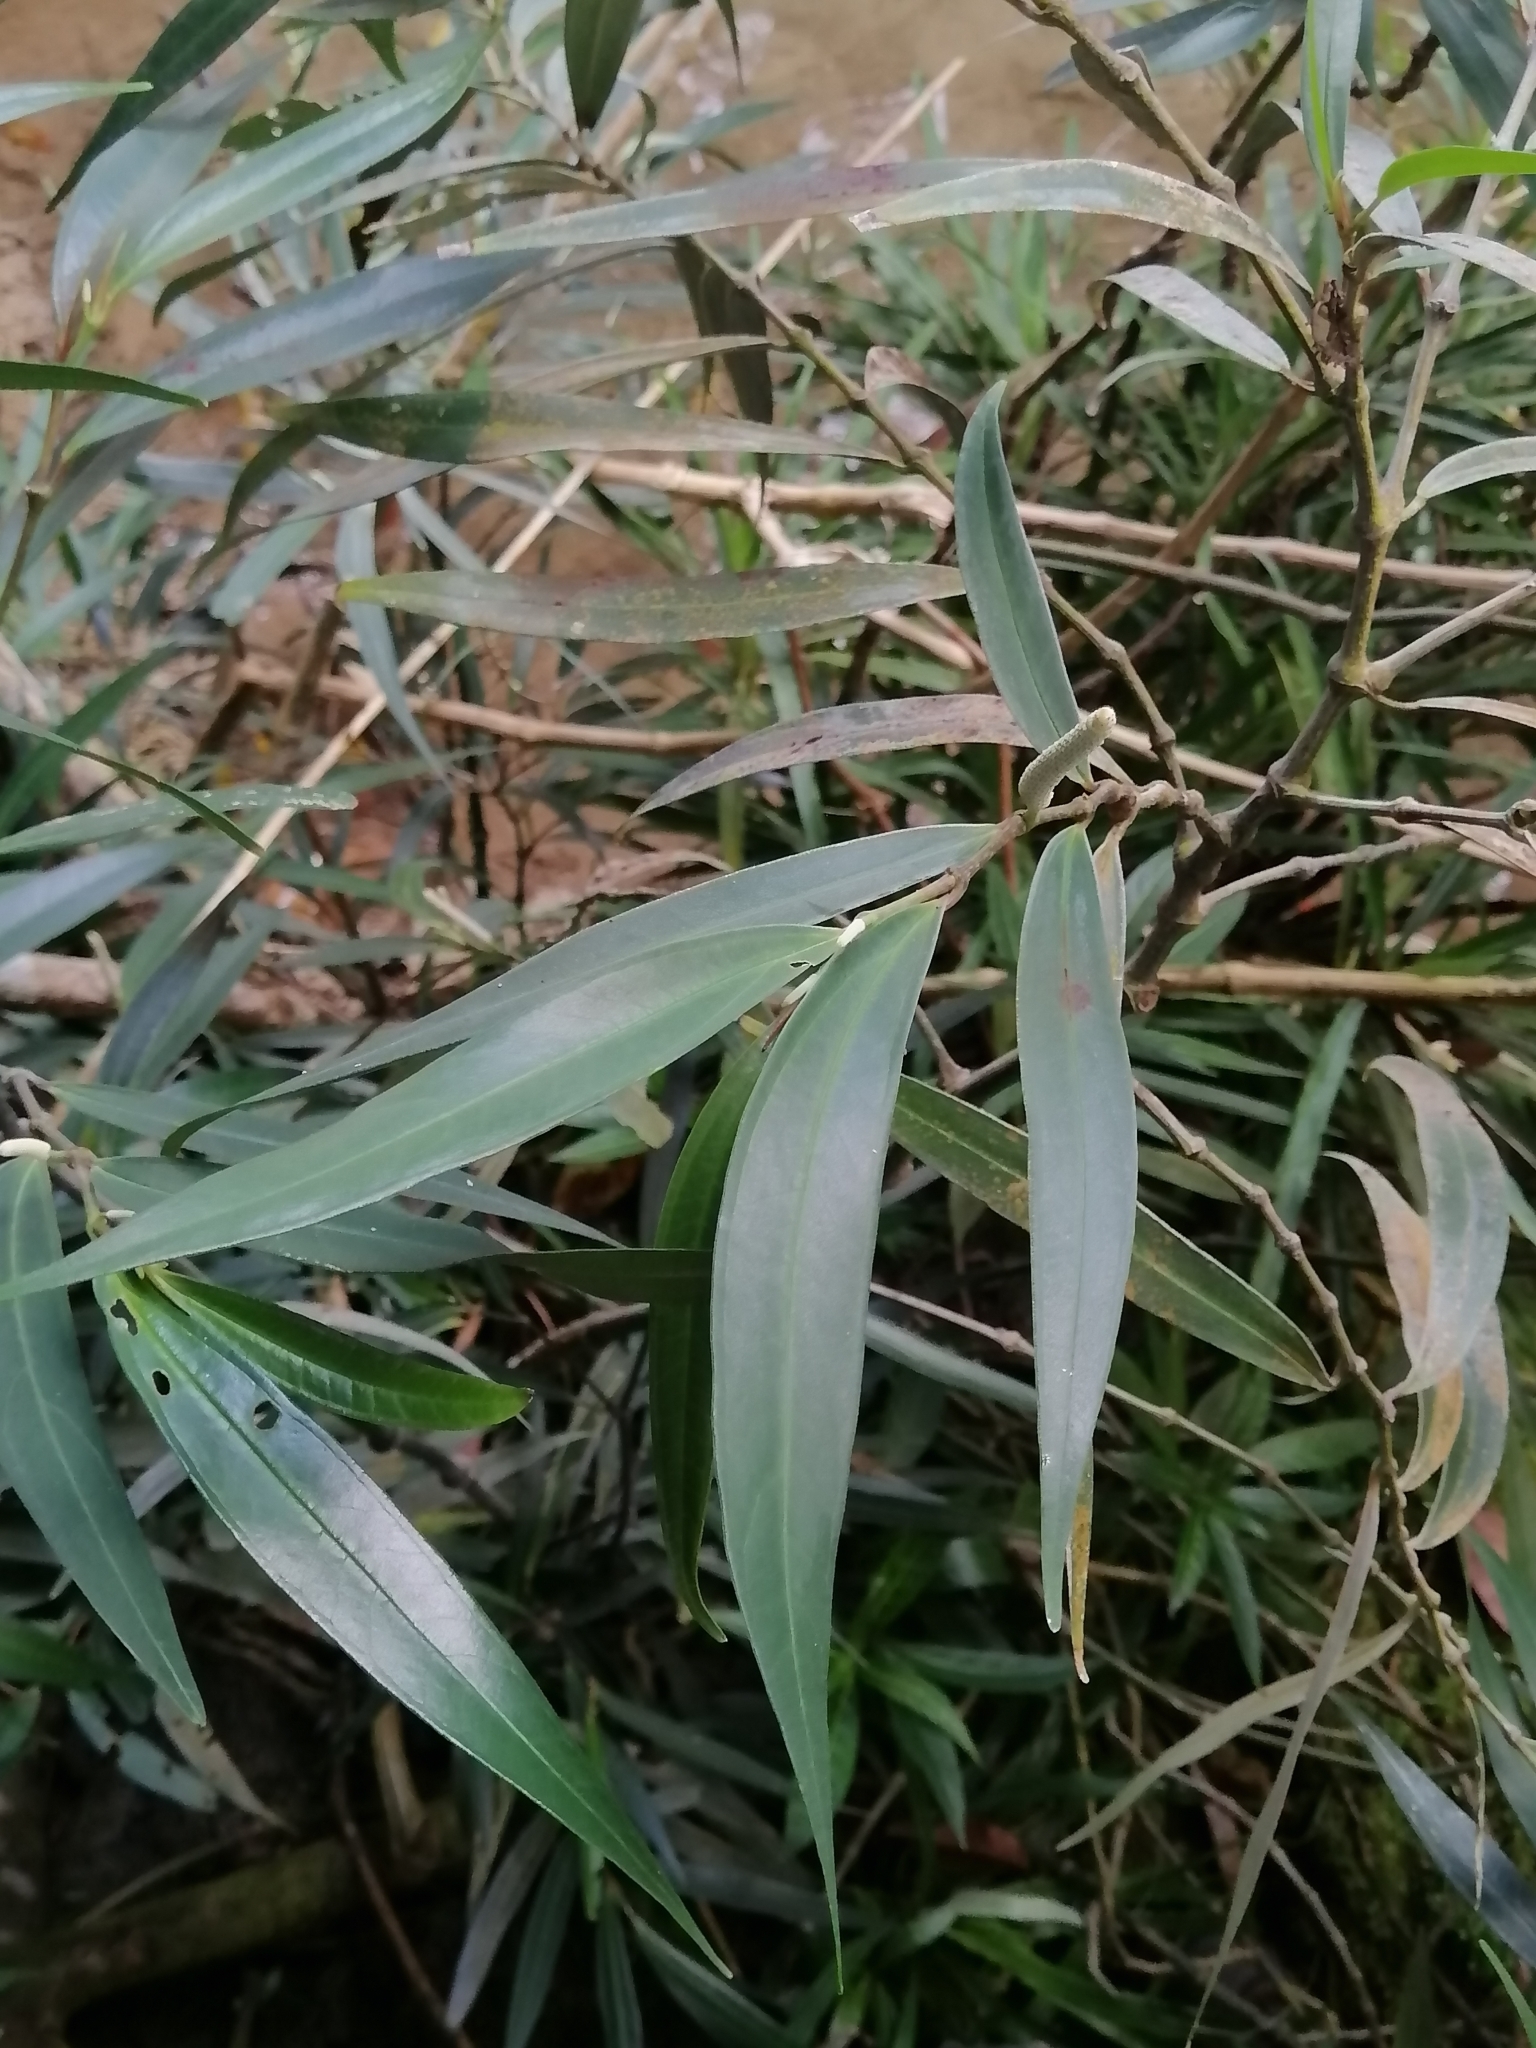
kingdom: Plantae
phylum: Tracheophyta
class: Magnoliopsida
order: Piperales
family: Piperaceae
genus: Piper
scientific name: Piper linearifolium
